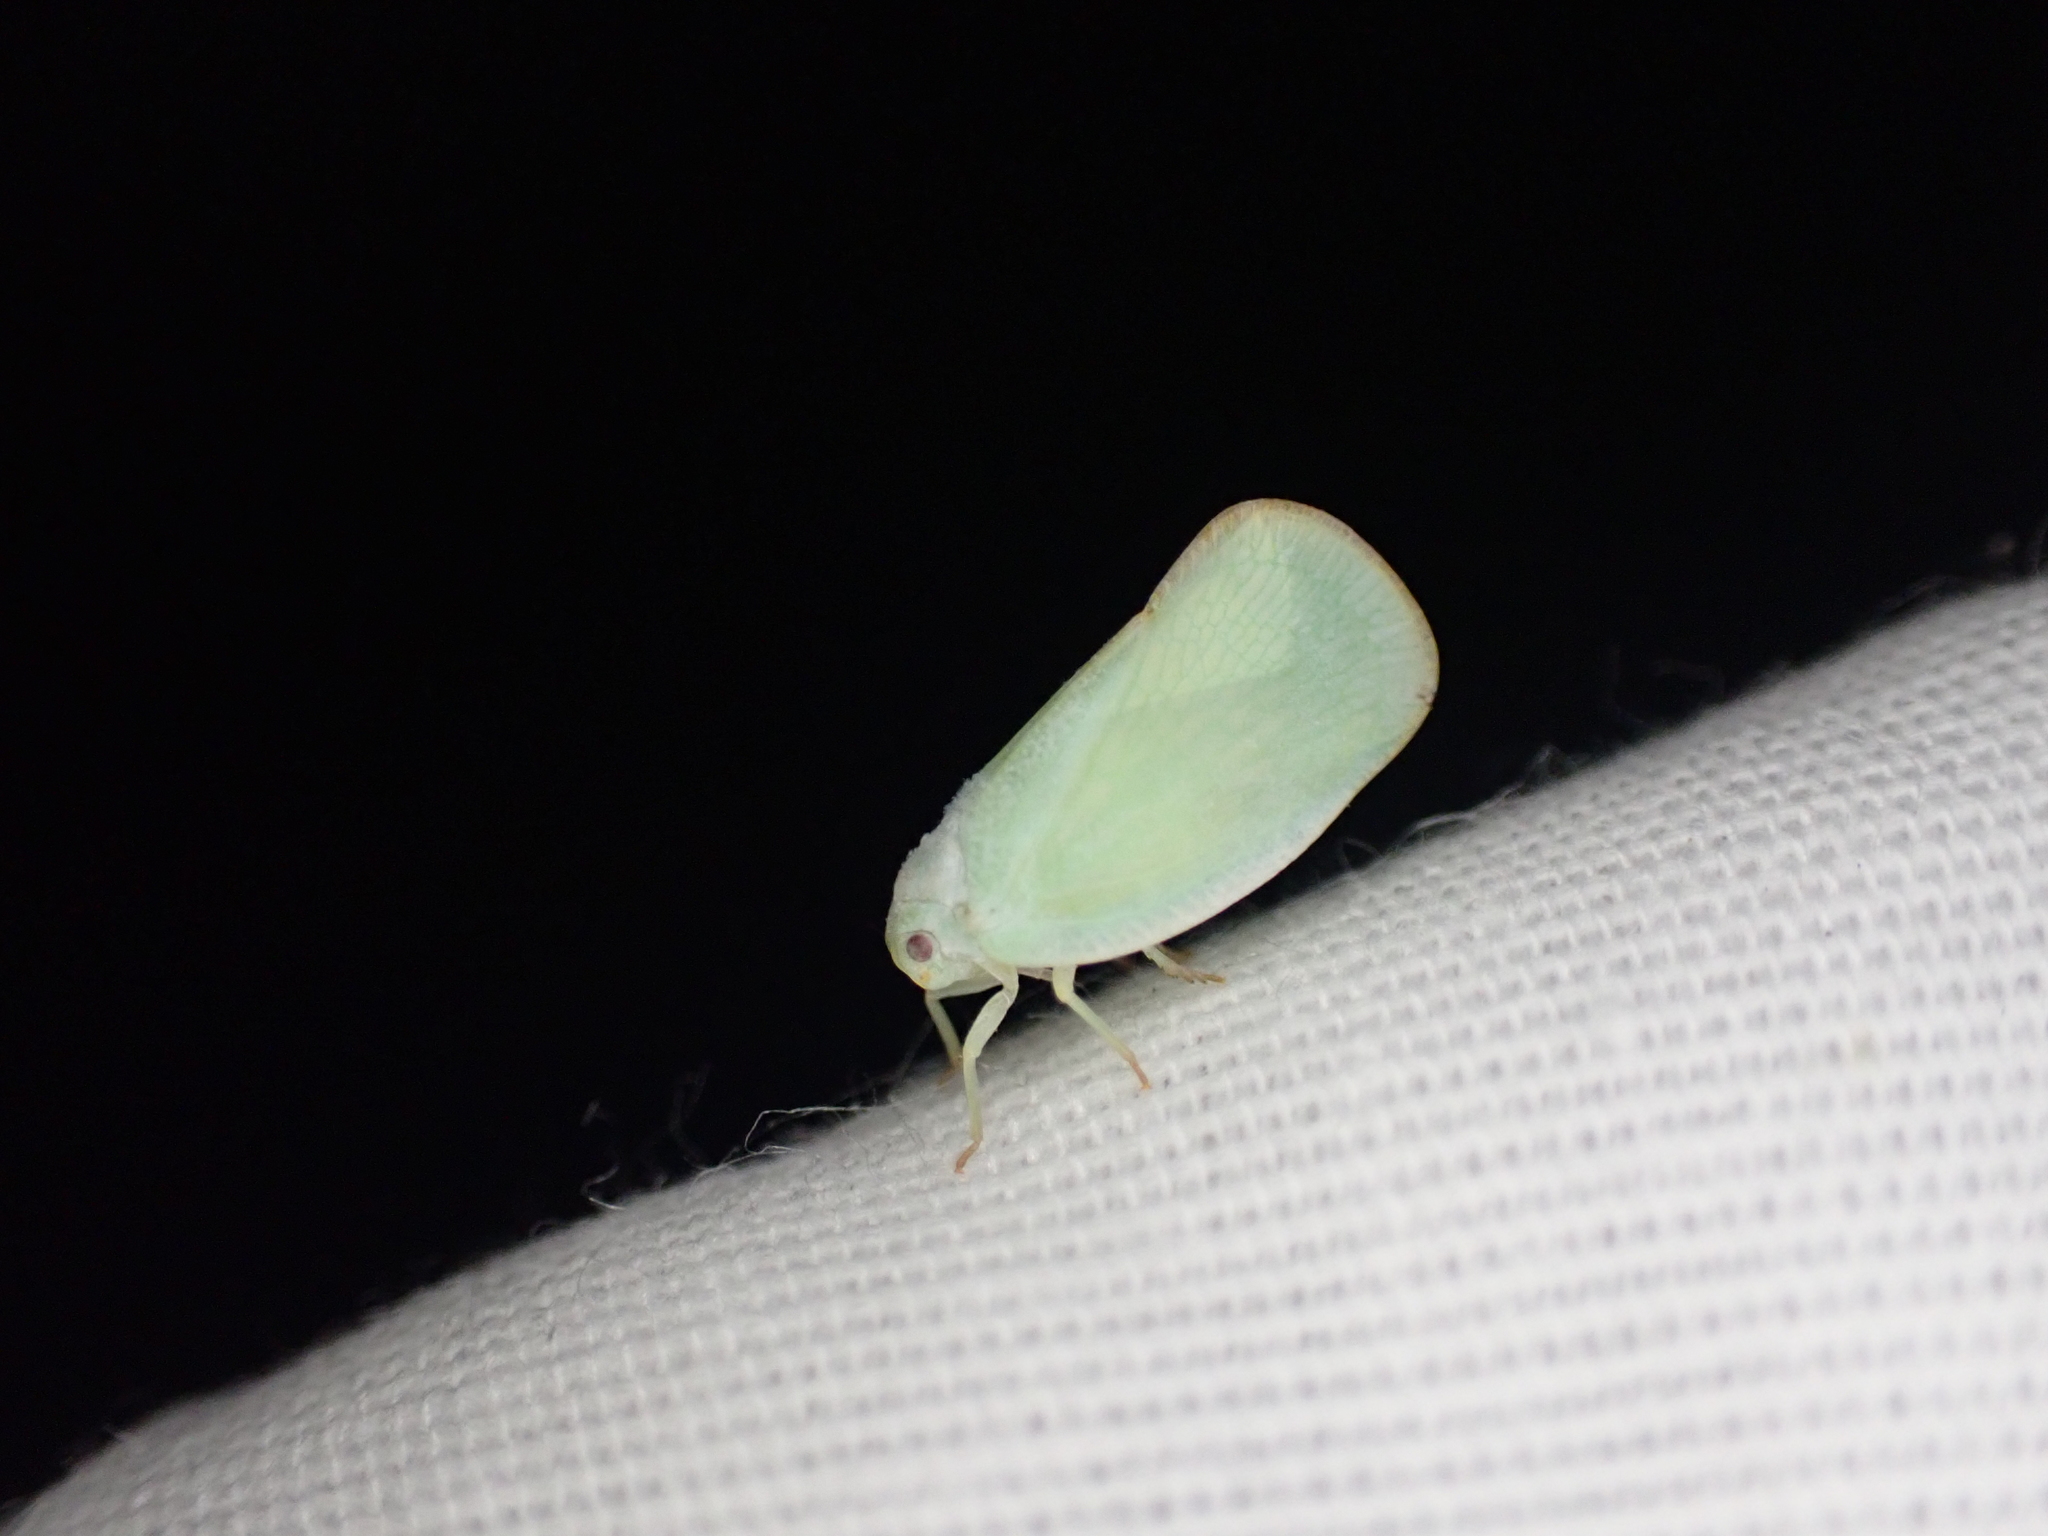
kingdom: Animalia
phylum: Arthropoda
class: Insecta
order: Hemiptera
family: Flatidae
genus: Ormenoides
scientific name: Ormenoides venusta
